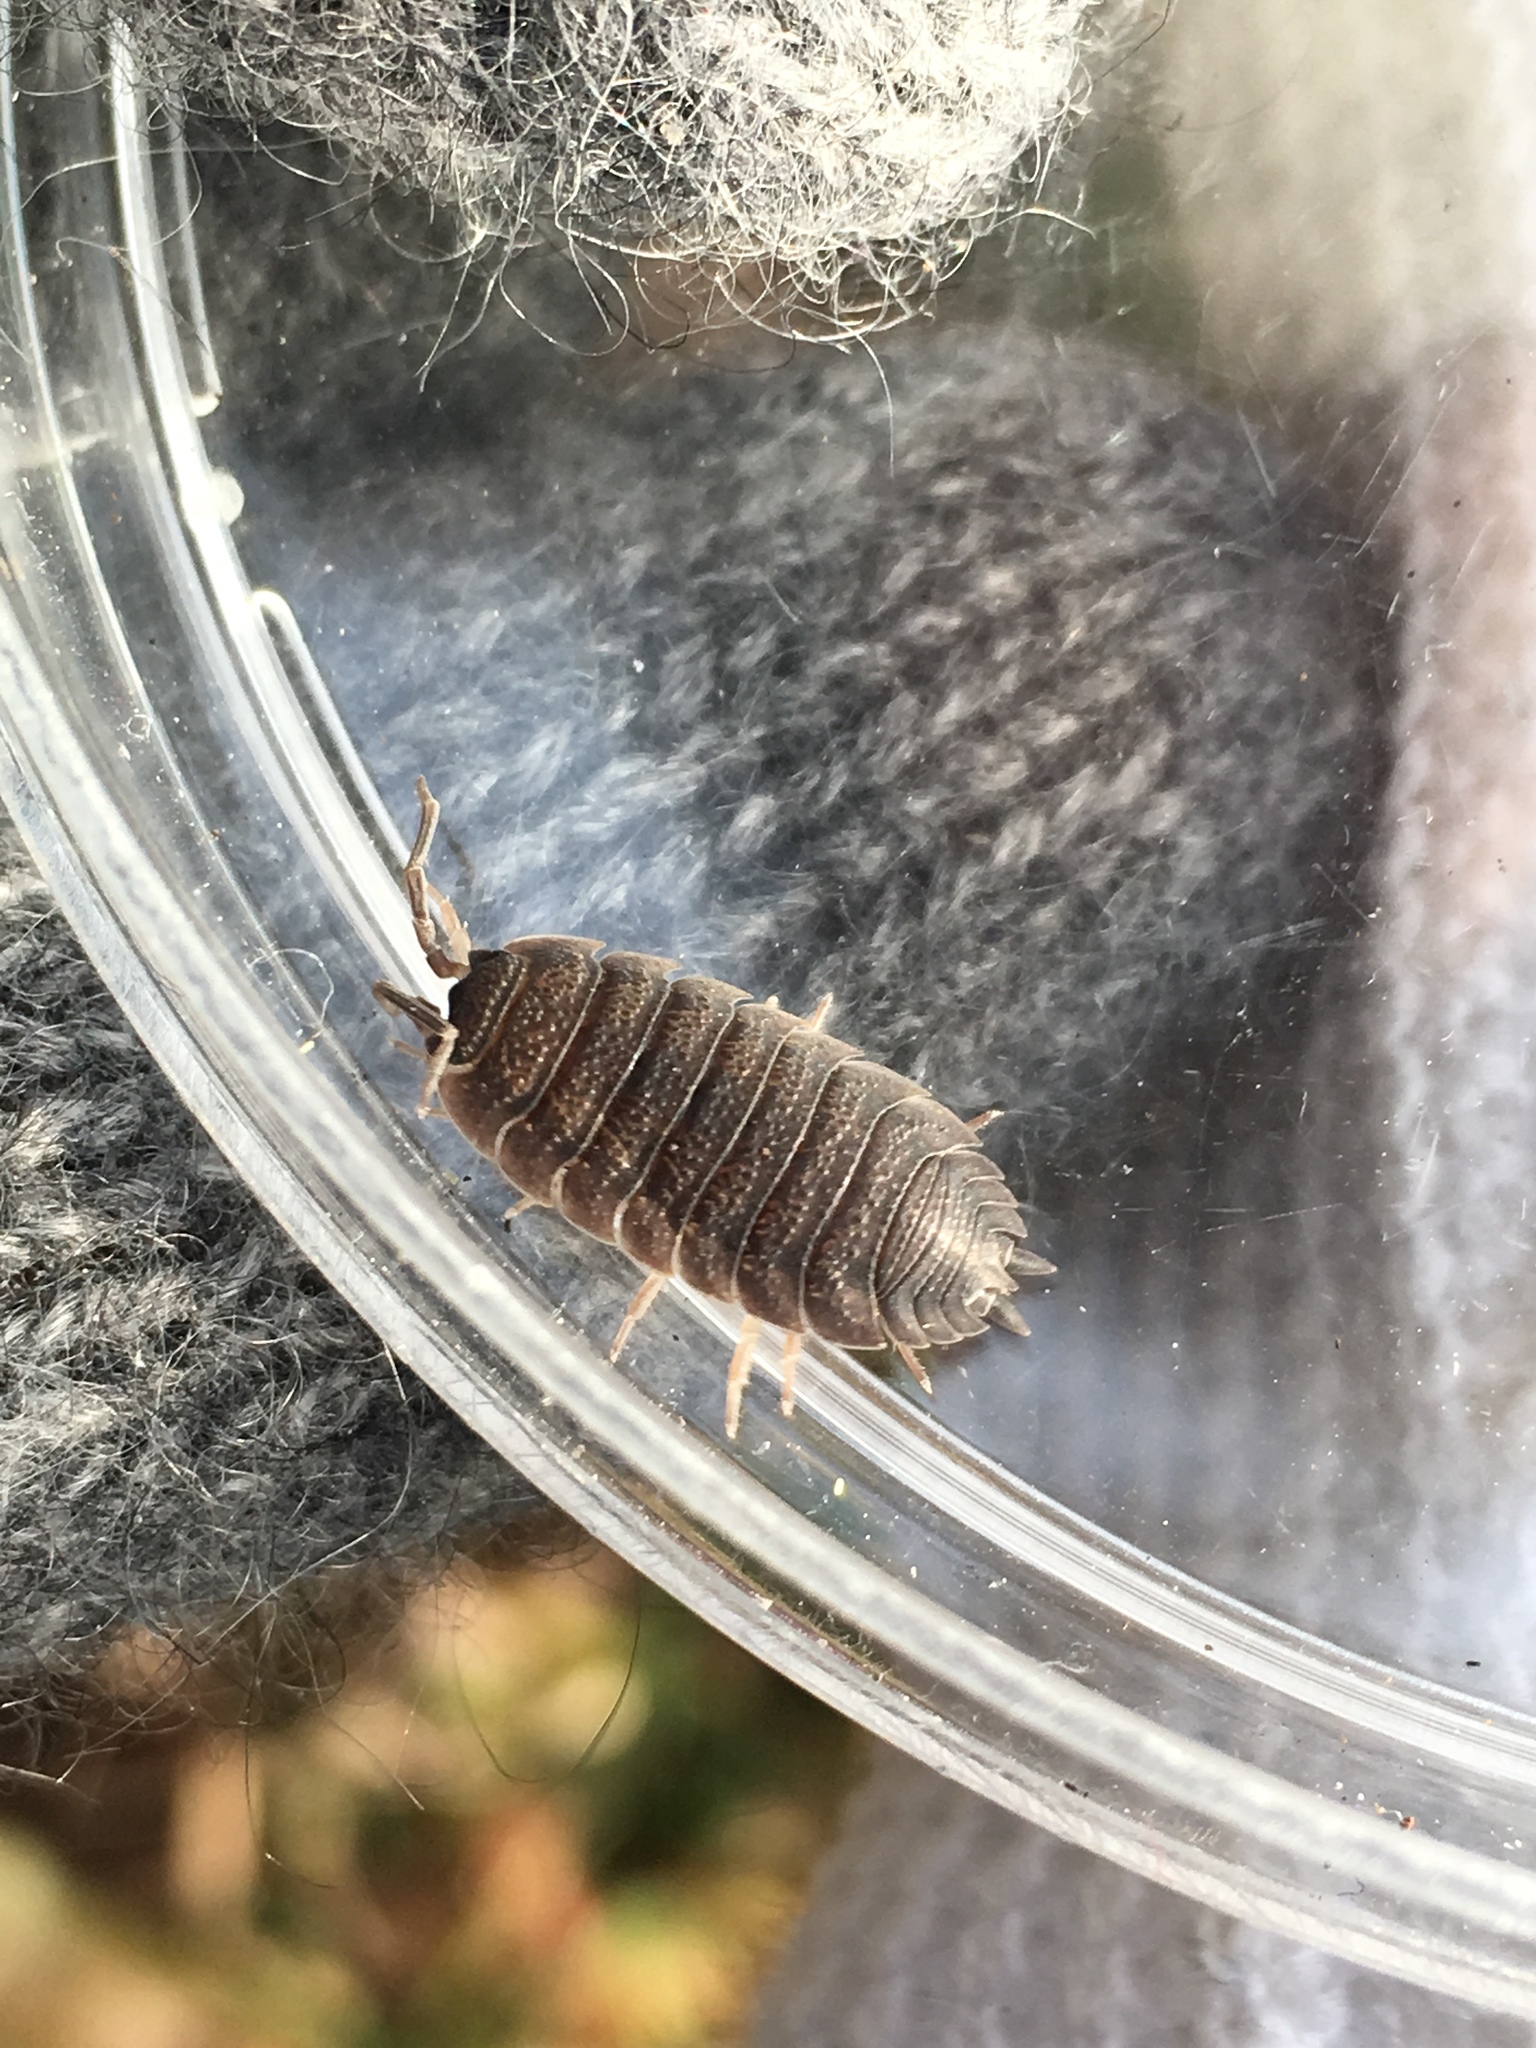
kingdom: Animalia
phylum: Arthropoda
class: Malacostraca
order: Isopoda
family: Porcellionidae
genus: Porcellio
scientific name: Porcellio scaber
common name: Common rough woodlouse
